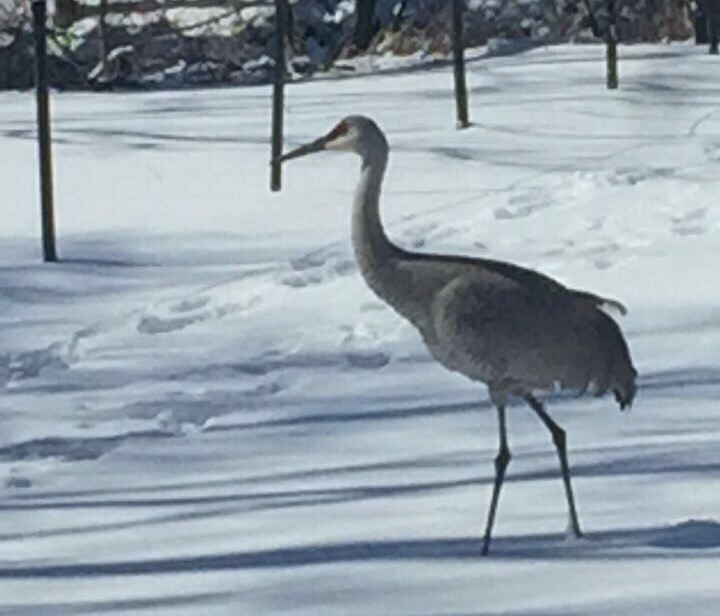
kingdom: Animalia
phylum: Chordata
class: Aves
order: Gruiformes
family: Gruidae
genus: Grus
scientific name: Grus canadensis
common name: Sandhill crane
